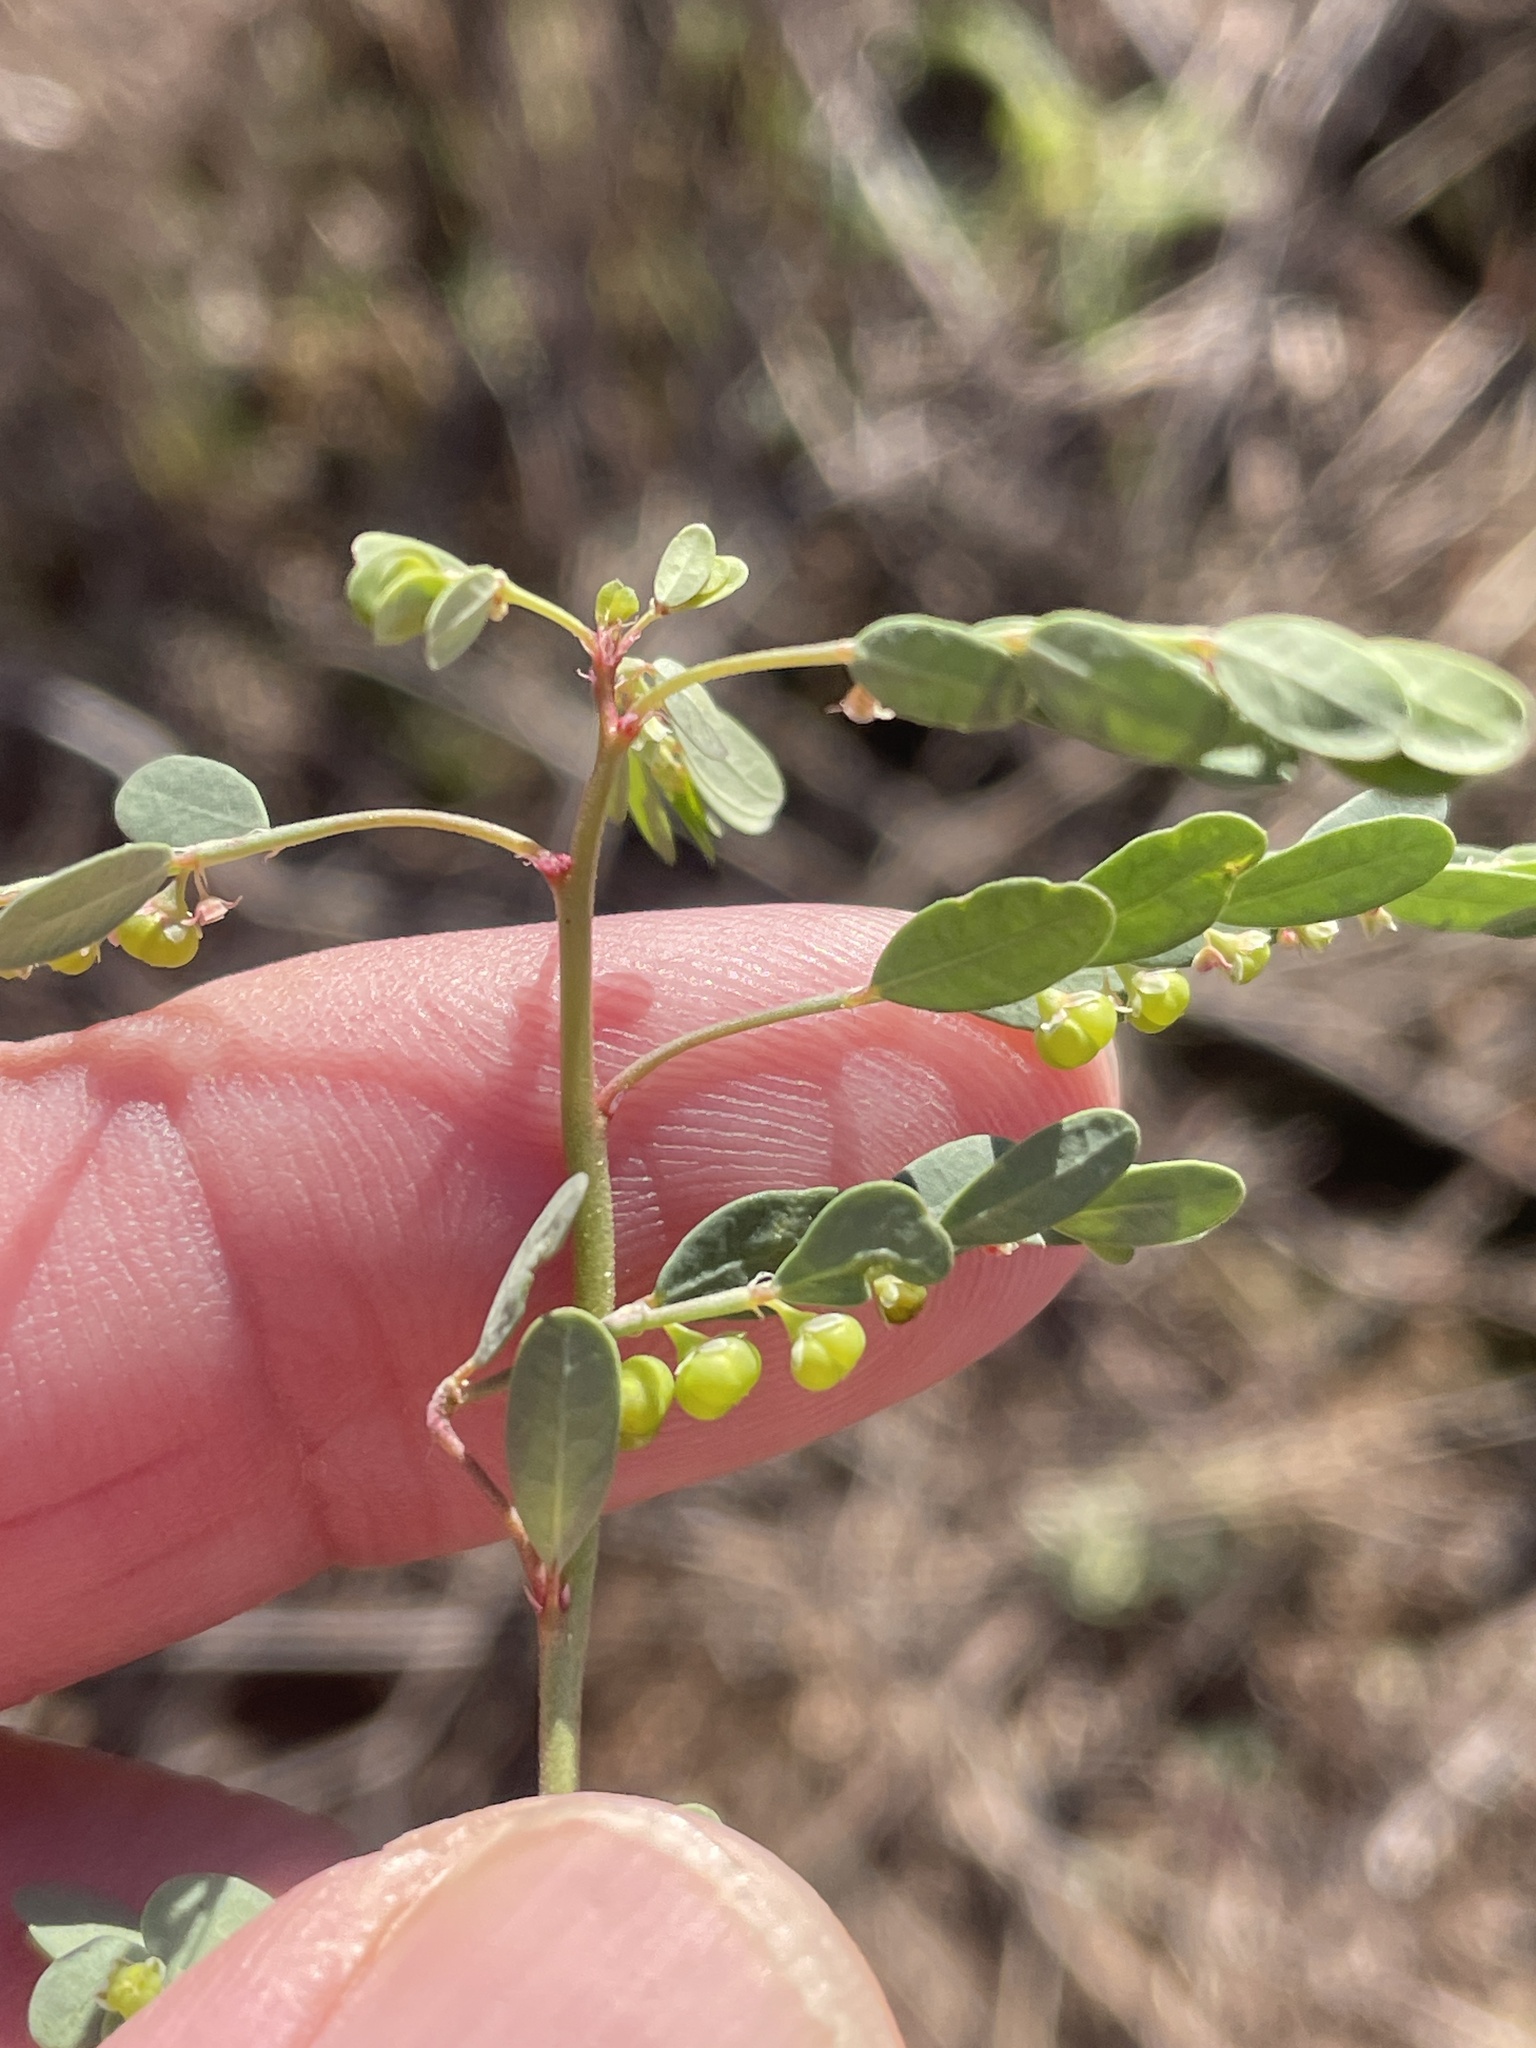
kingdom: Plantae
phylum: Tracheophyta
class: Magnoliopsida
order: Malpighiales
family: Phyllanthaceae
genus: Phyllanthus
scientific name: Phyllanthus urinaria
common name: Chamber bitter
